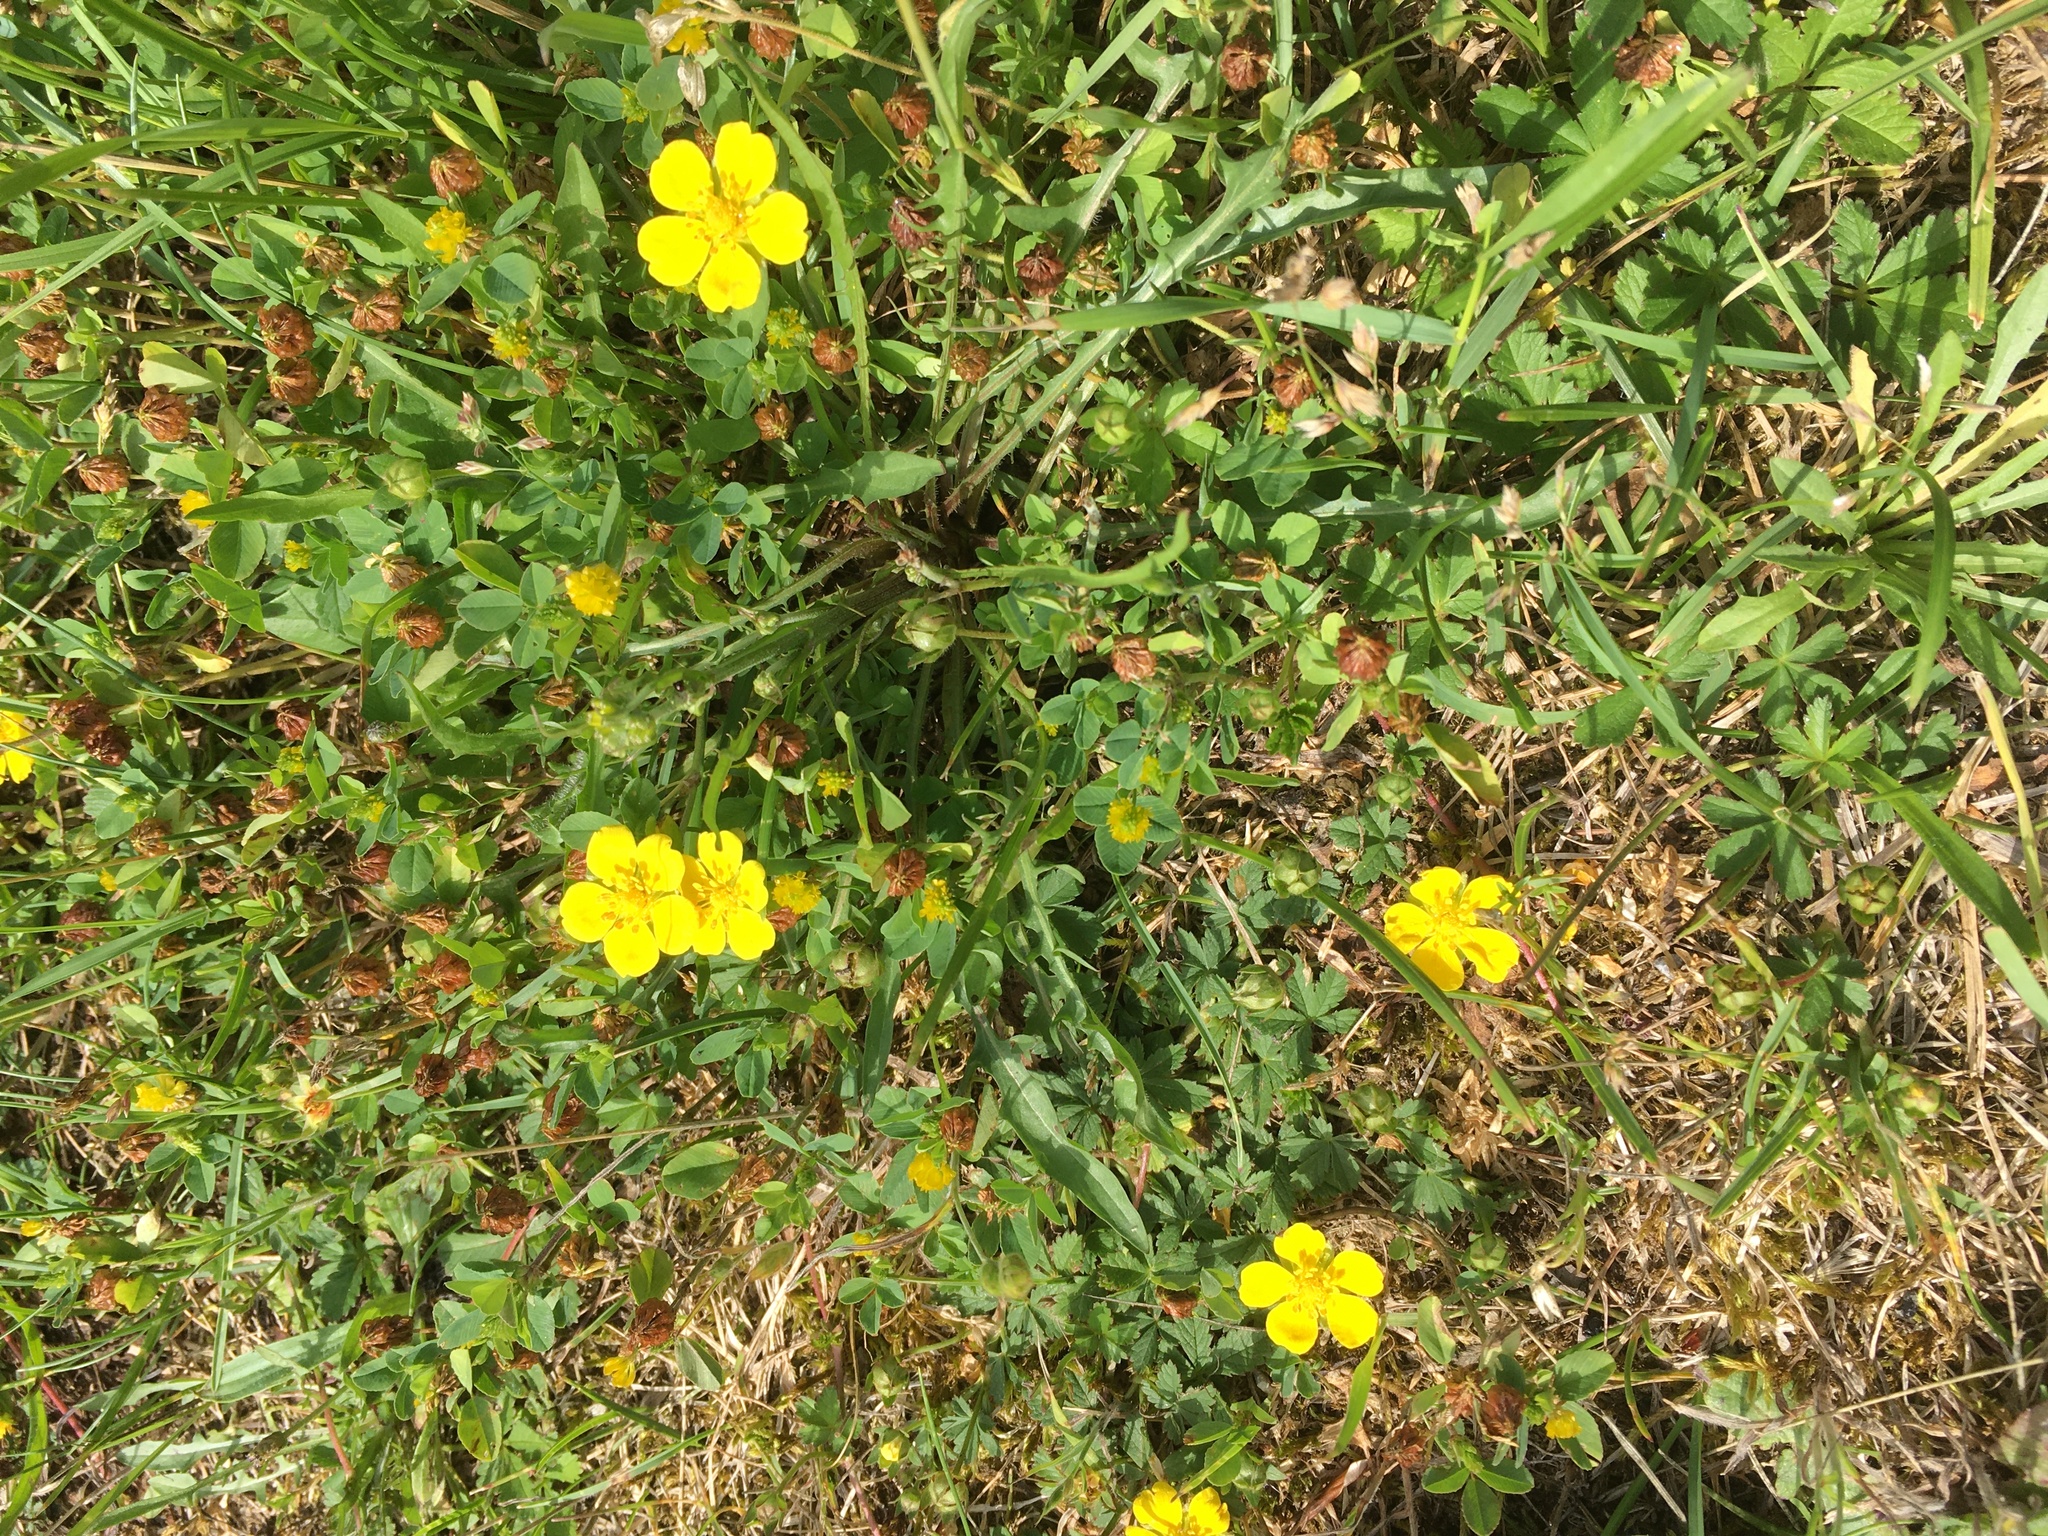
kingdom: Plantae
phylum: Tracheophyta
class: Magnoliopsida
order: Rosales
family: Rosaceae
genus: Potentilla
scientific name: Potentilla reptans
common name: Creeping cinquefoil
